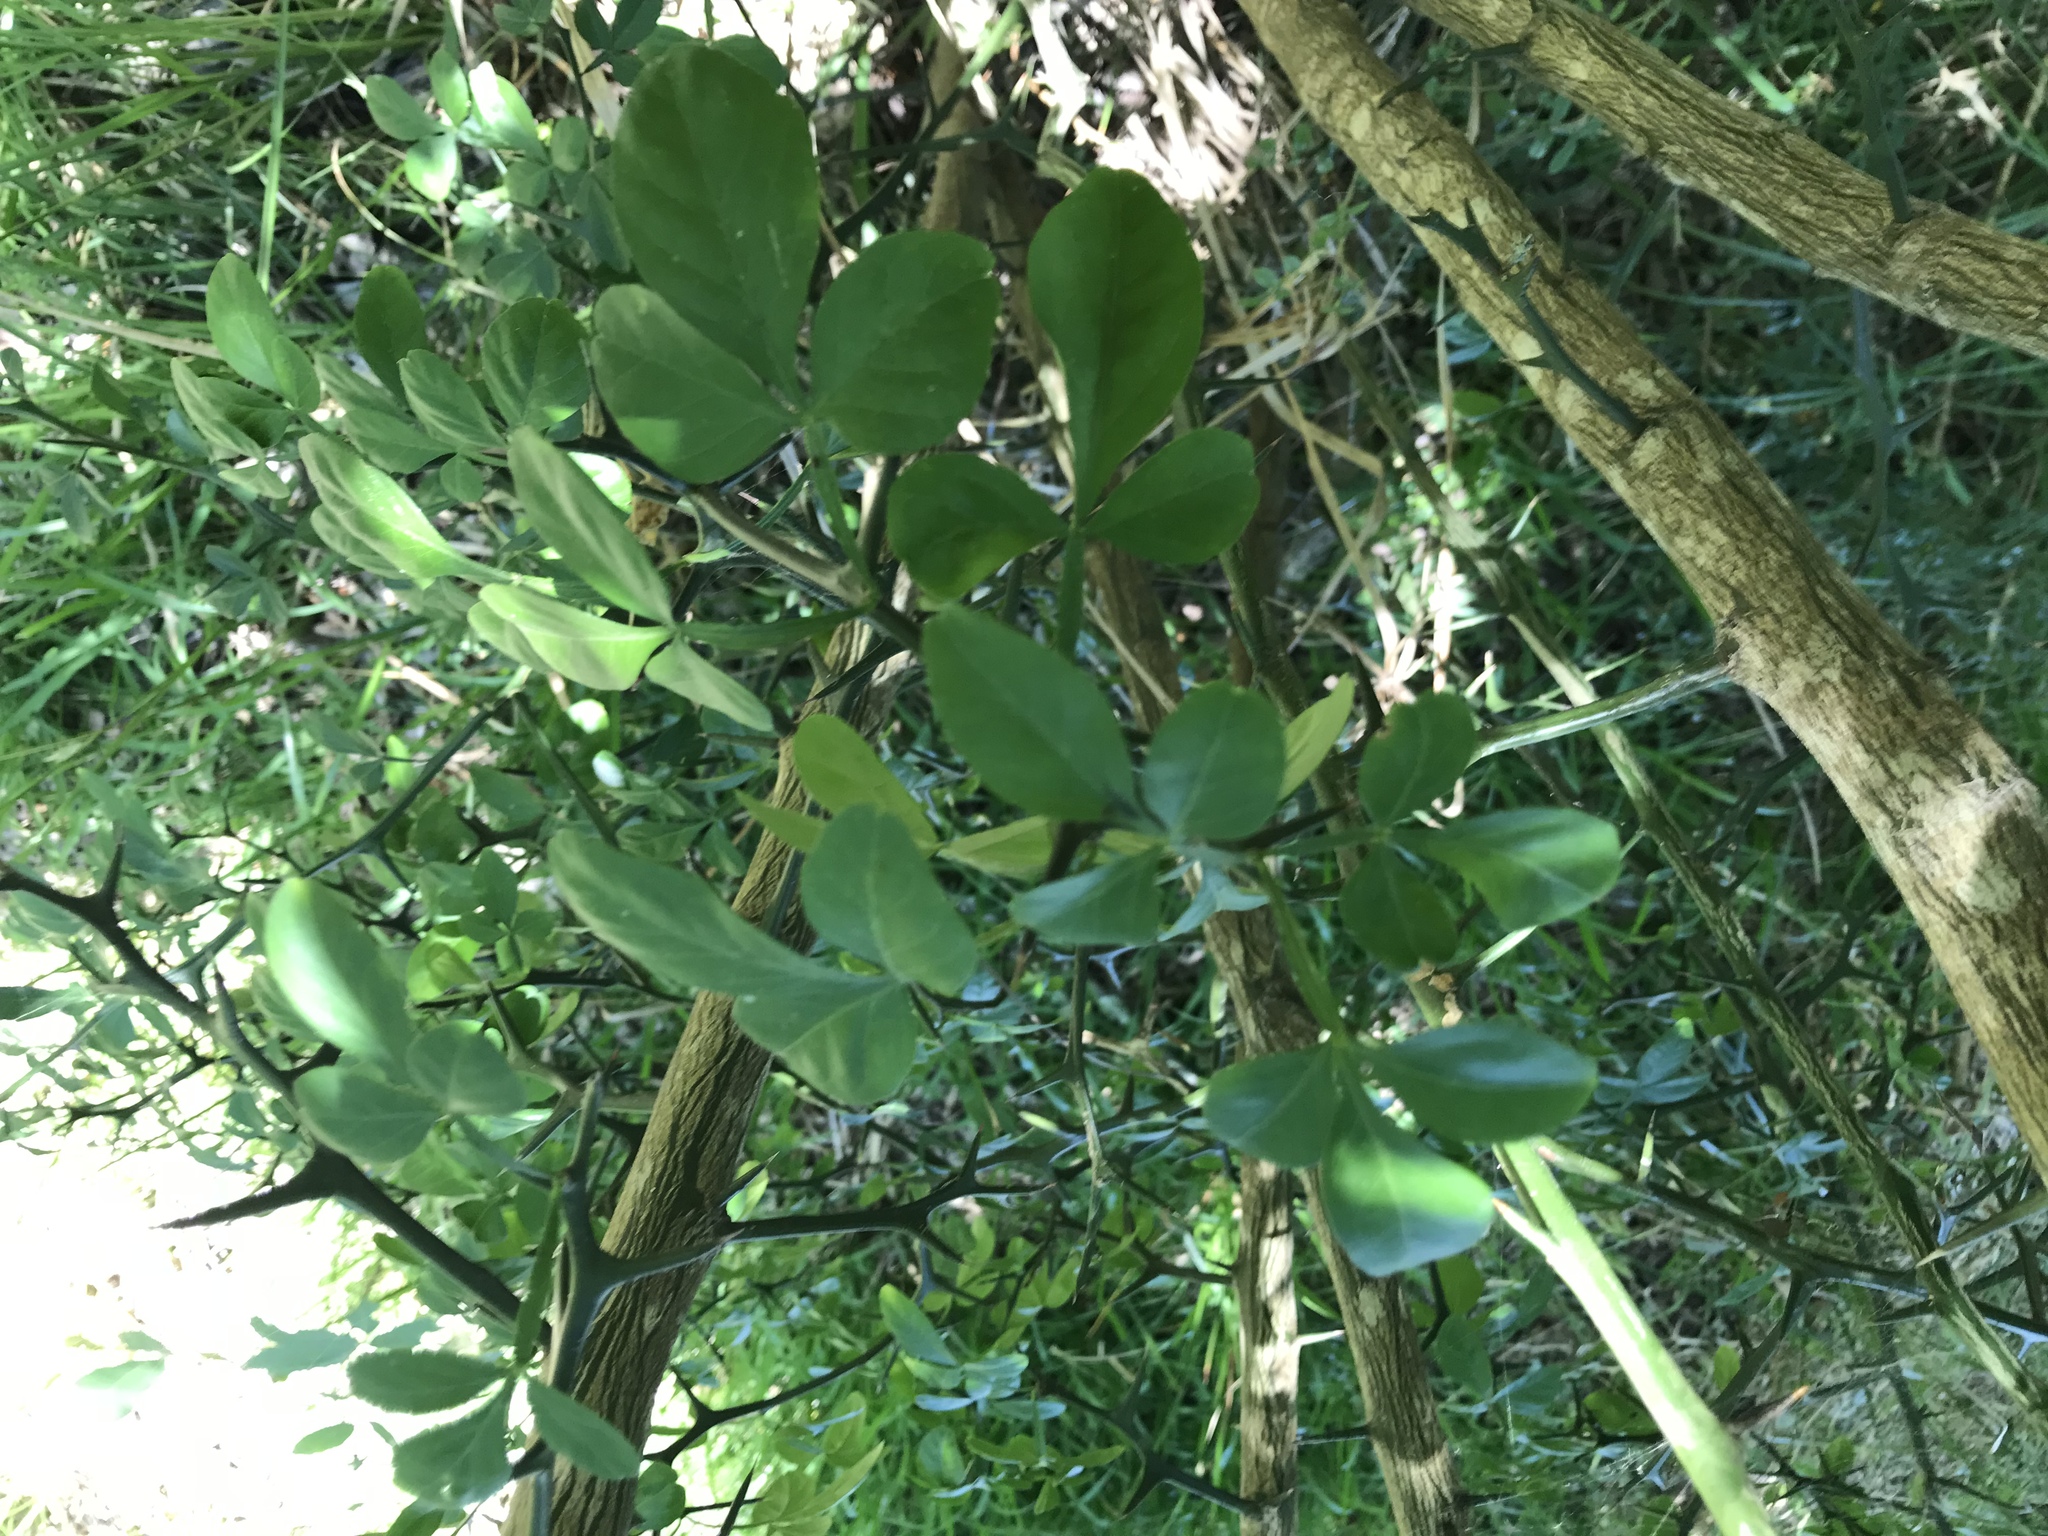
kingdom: Plantae
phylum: Tracheophyta
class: Magnoliopsida
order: Sapindales
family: Rutaceae
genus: Citrus
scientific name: Citrus trifoliata
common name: Japanese bitter-orange
